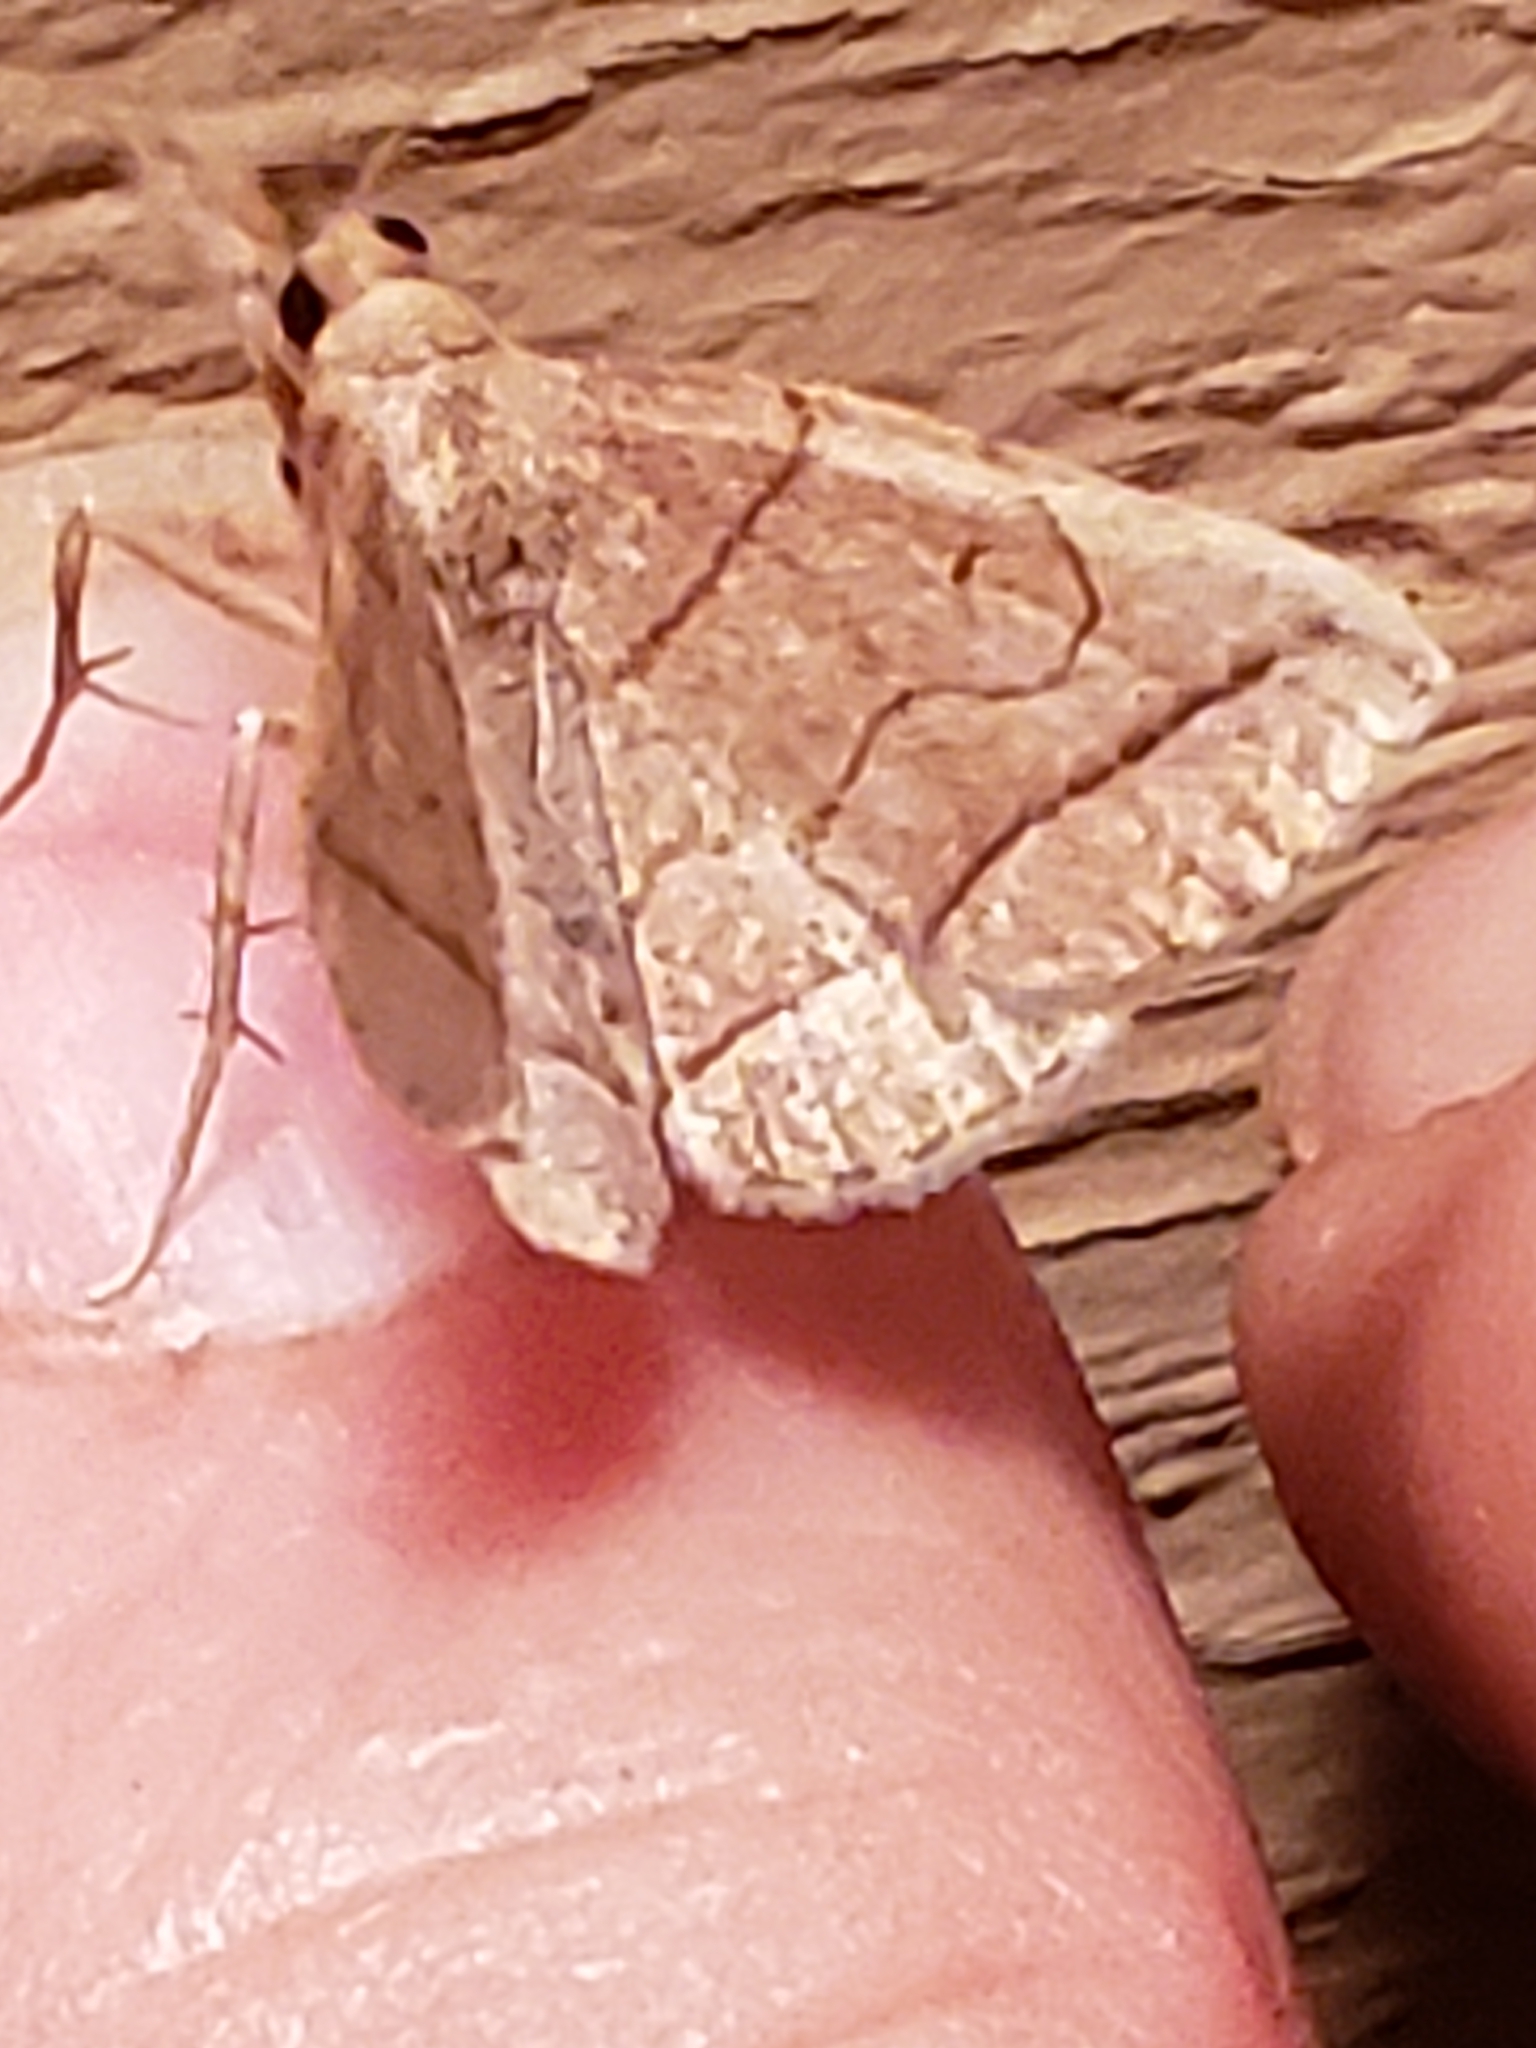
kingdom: Animalia
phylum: Arthropoda
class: Insecta
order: Lepidoptera
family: Erebidae
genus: Zanclognatha
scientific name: Zanclognatha cruralis
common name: Early fan-foot
